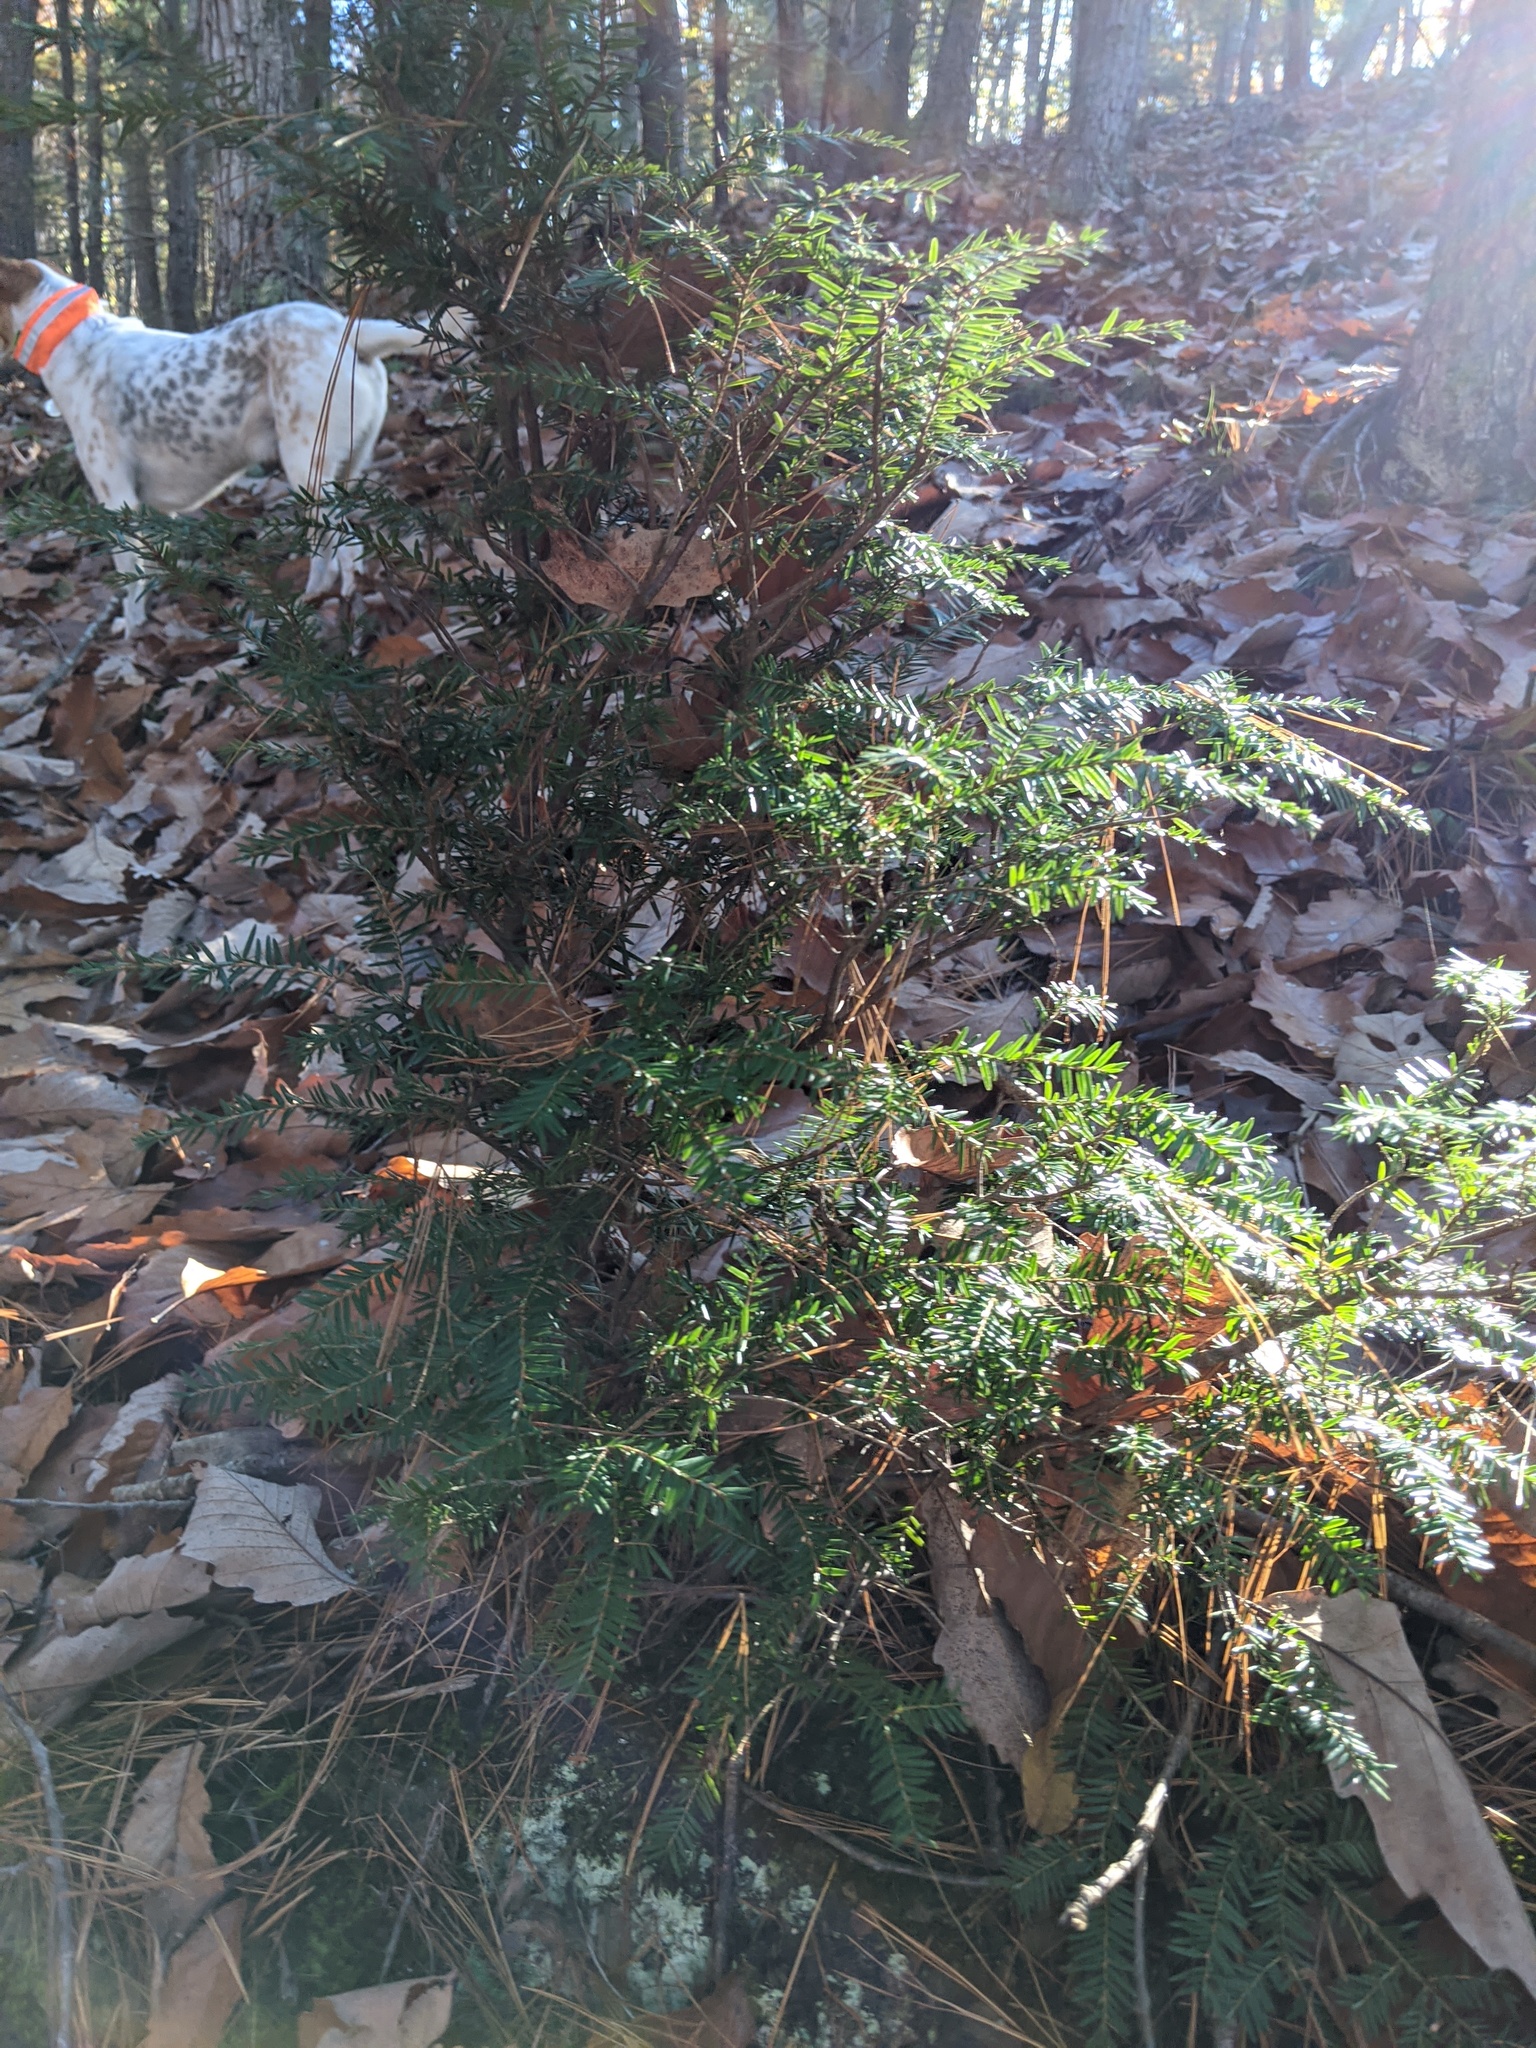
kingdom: Plantae
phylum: Tracheophyta
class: Pinopsida
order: Pinales
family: Pinaceae
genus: Tsuga
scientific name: Tsuga canadensis
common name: Eastern hemlock
